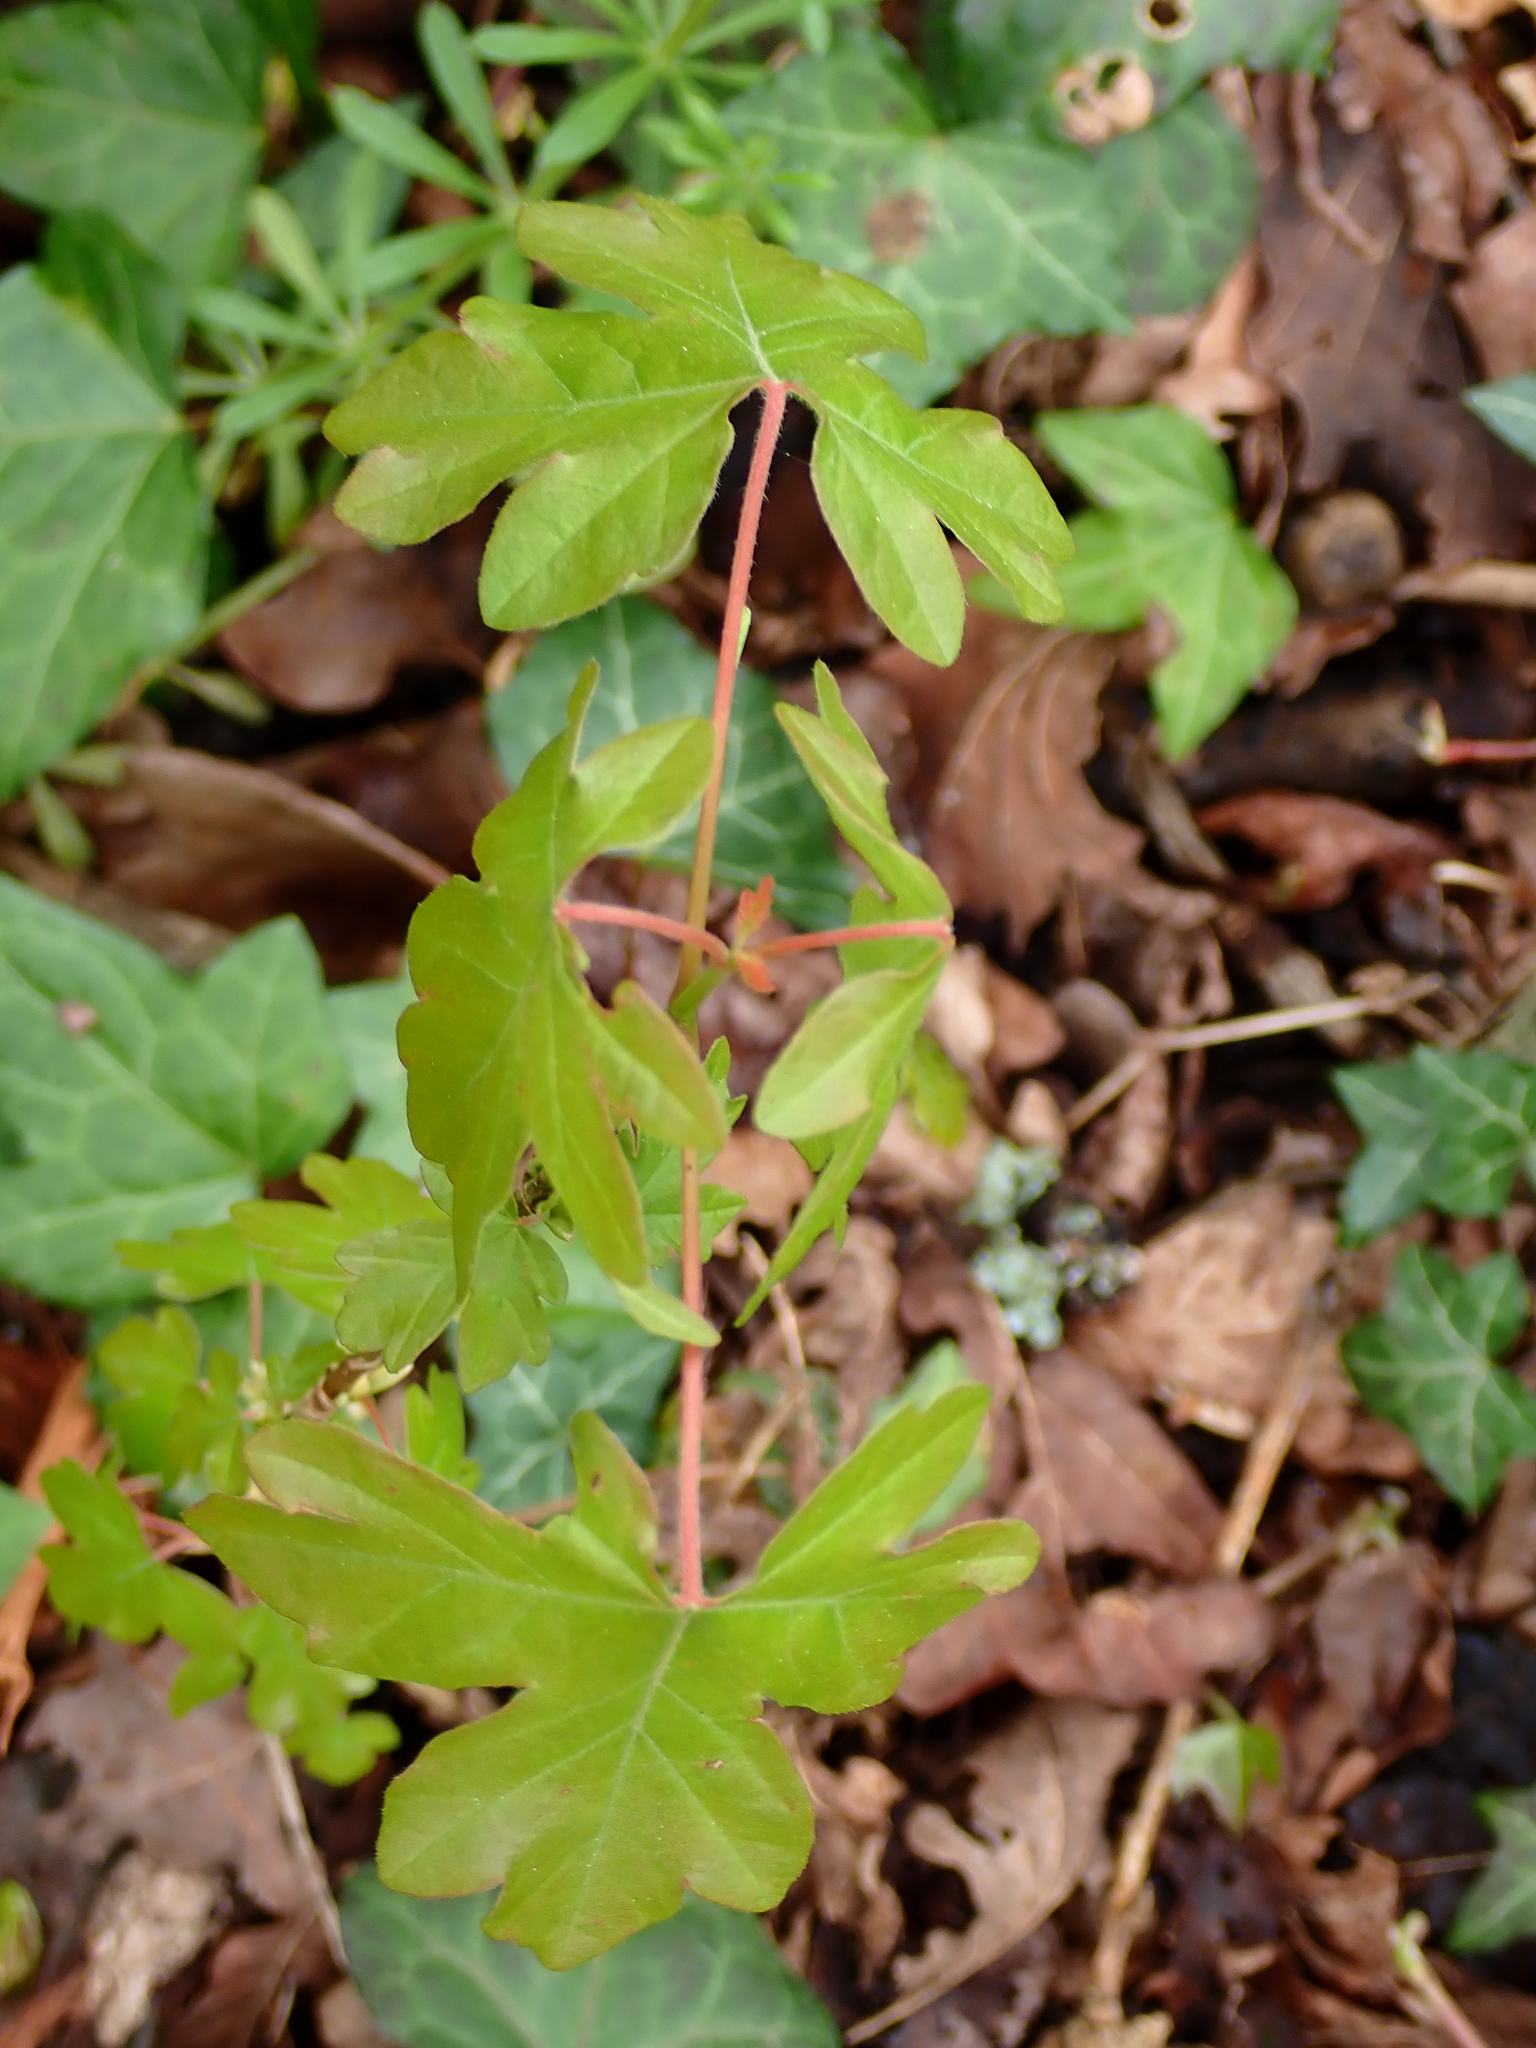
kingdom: Plantae
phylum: Tracheophyta
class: Magnoliopsida
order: Sapindales
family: Sapindaceae
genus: Acer
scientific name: Acer campestre
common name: Field maple
